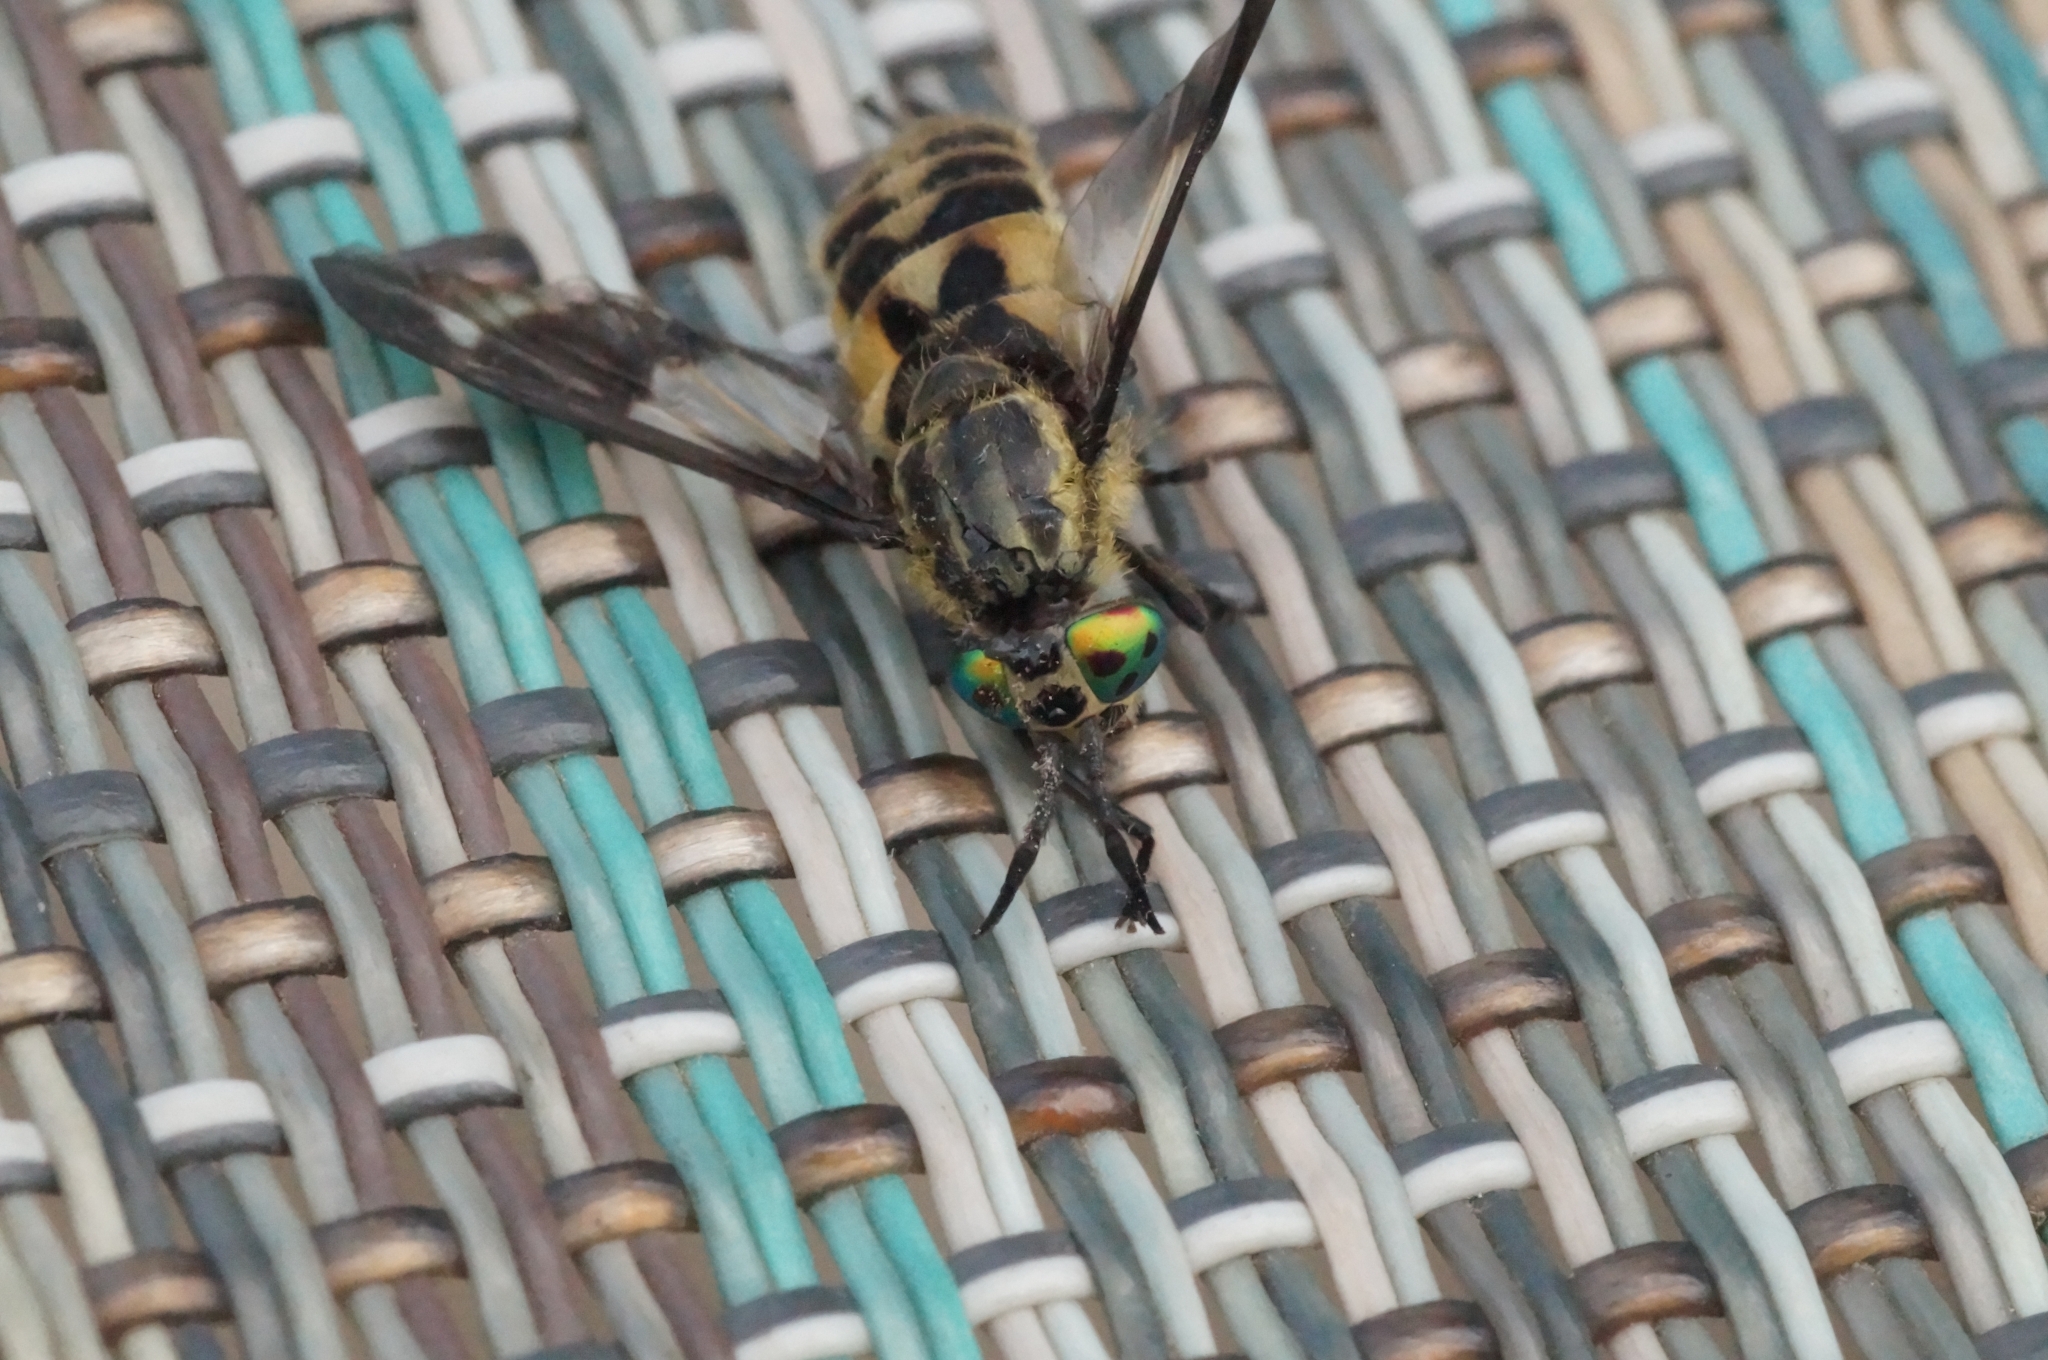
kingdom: Animalia
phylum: Arthropoda
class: Insecta
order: Diptera
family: Tabanidae
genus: Chrysops
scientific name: Chrysops relictus
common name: Twin-lobed deerfly
